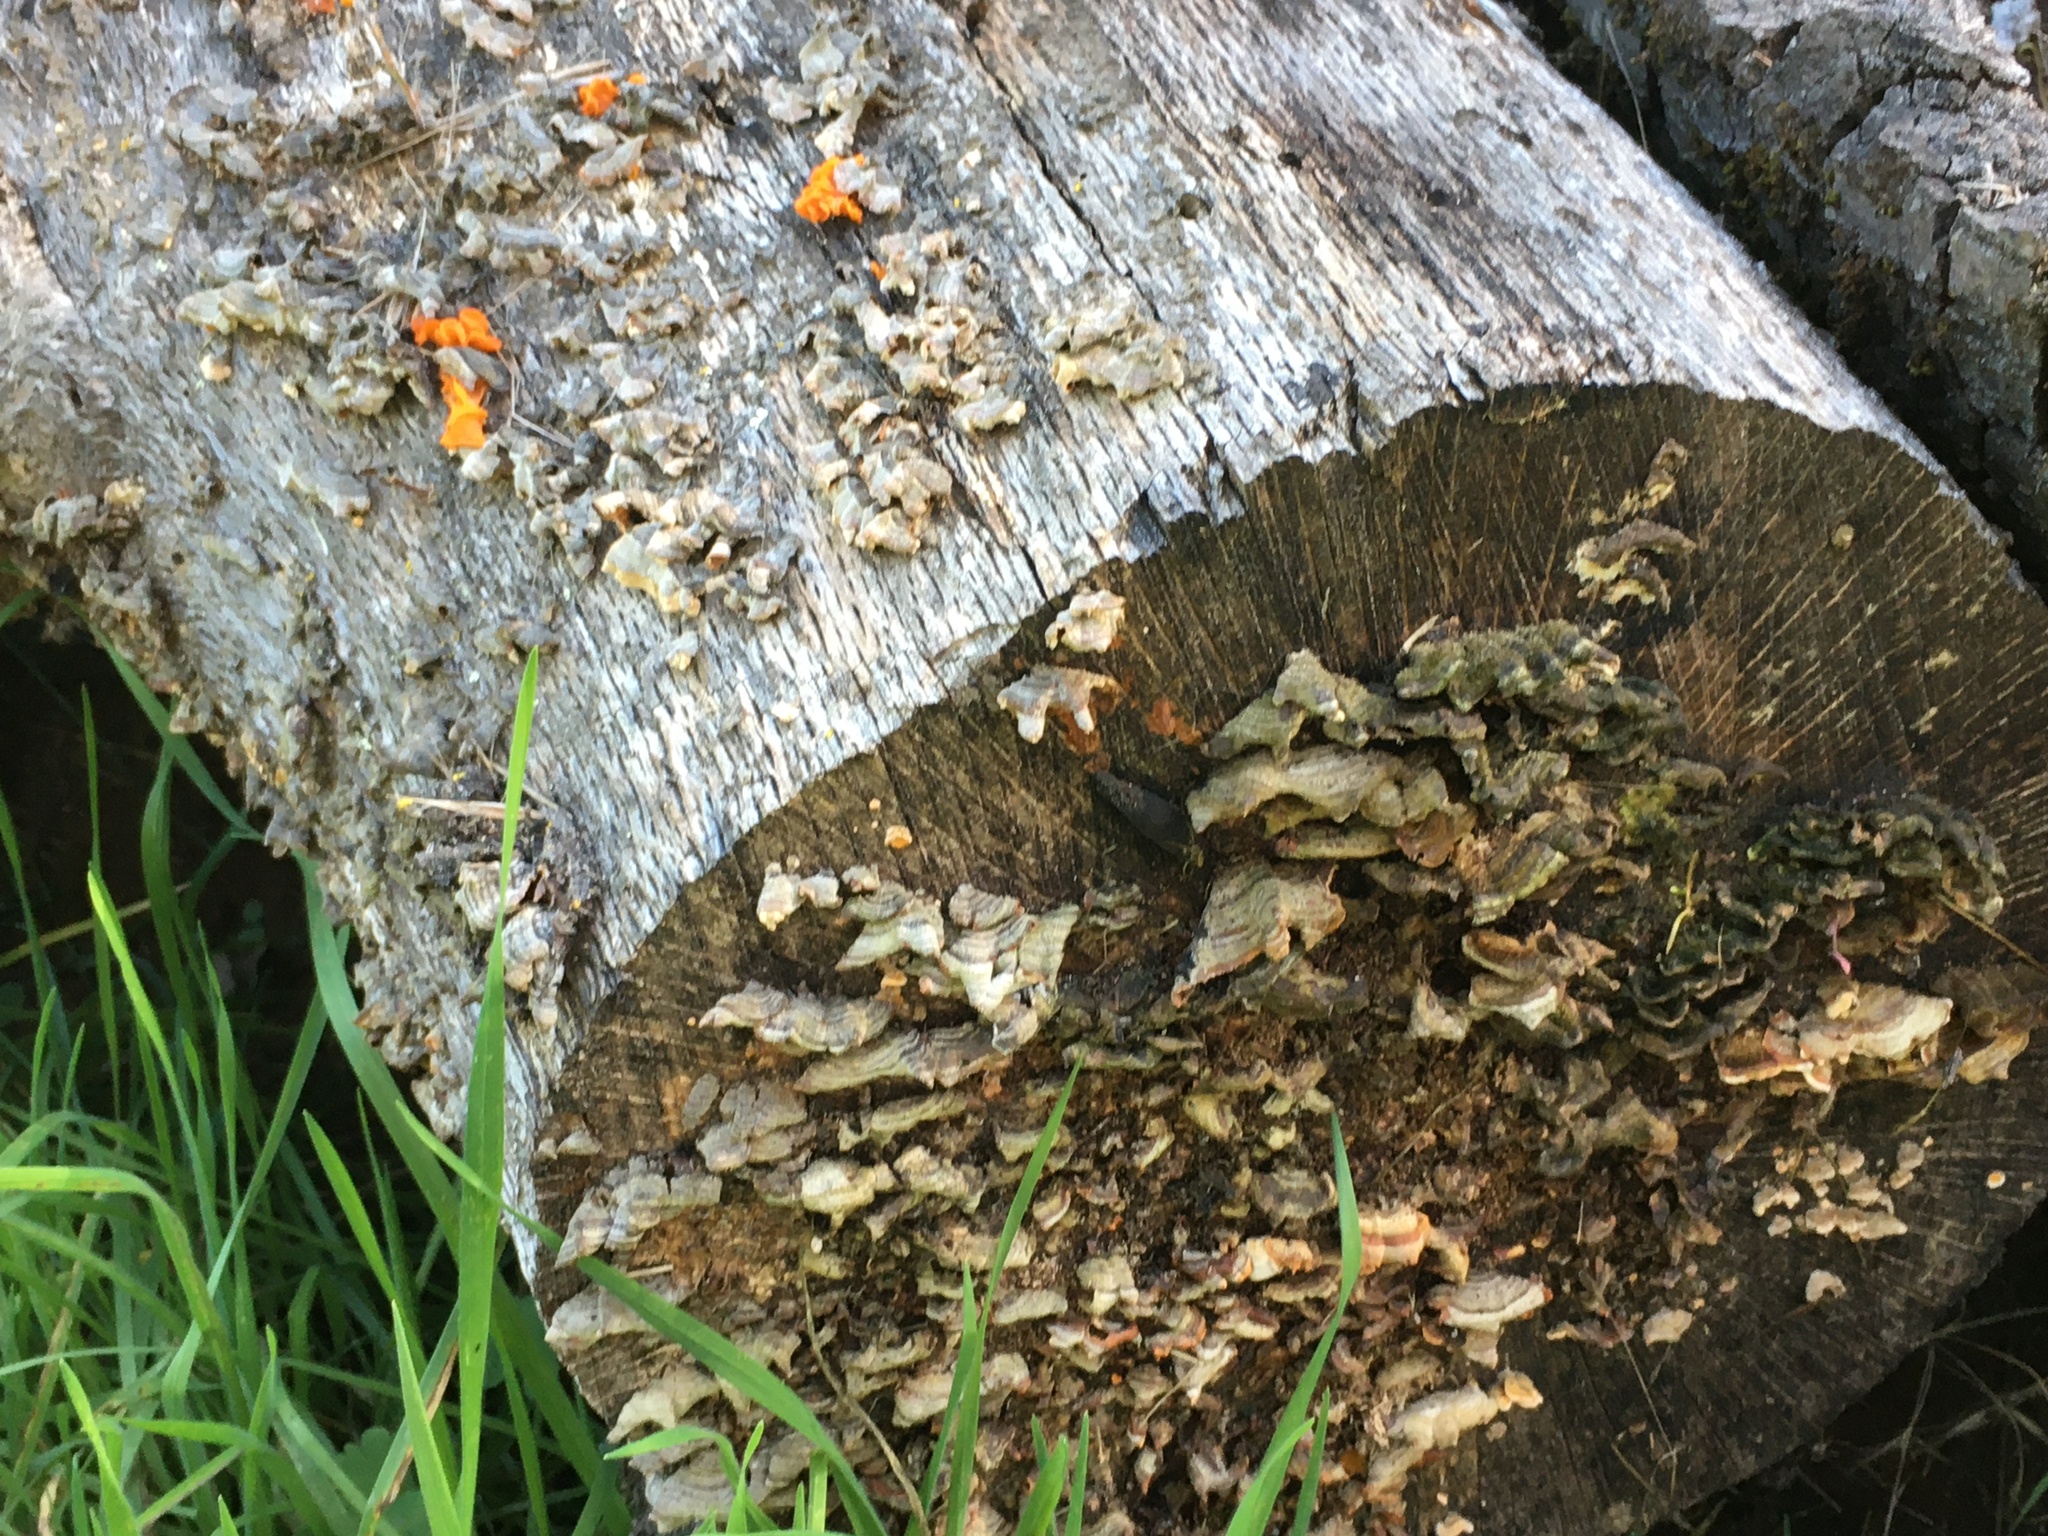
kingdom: Fungi
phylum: Basidiomycota
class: Tremellomycetes
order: Tremellales
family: Naemateliaceae
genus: Naematelia
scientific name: Naematelia aurantia
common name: Golden ear
